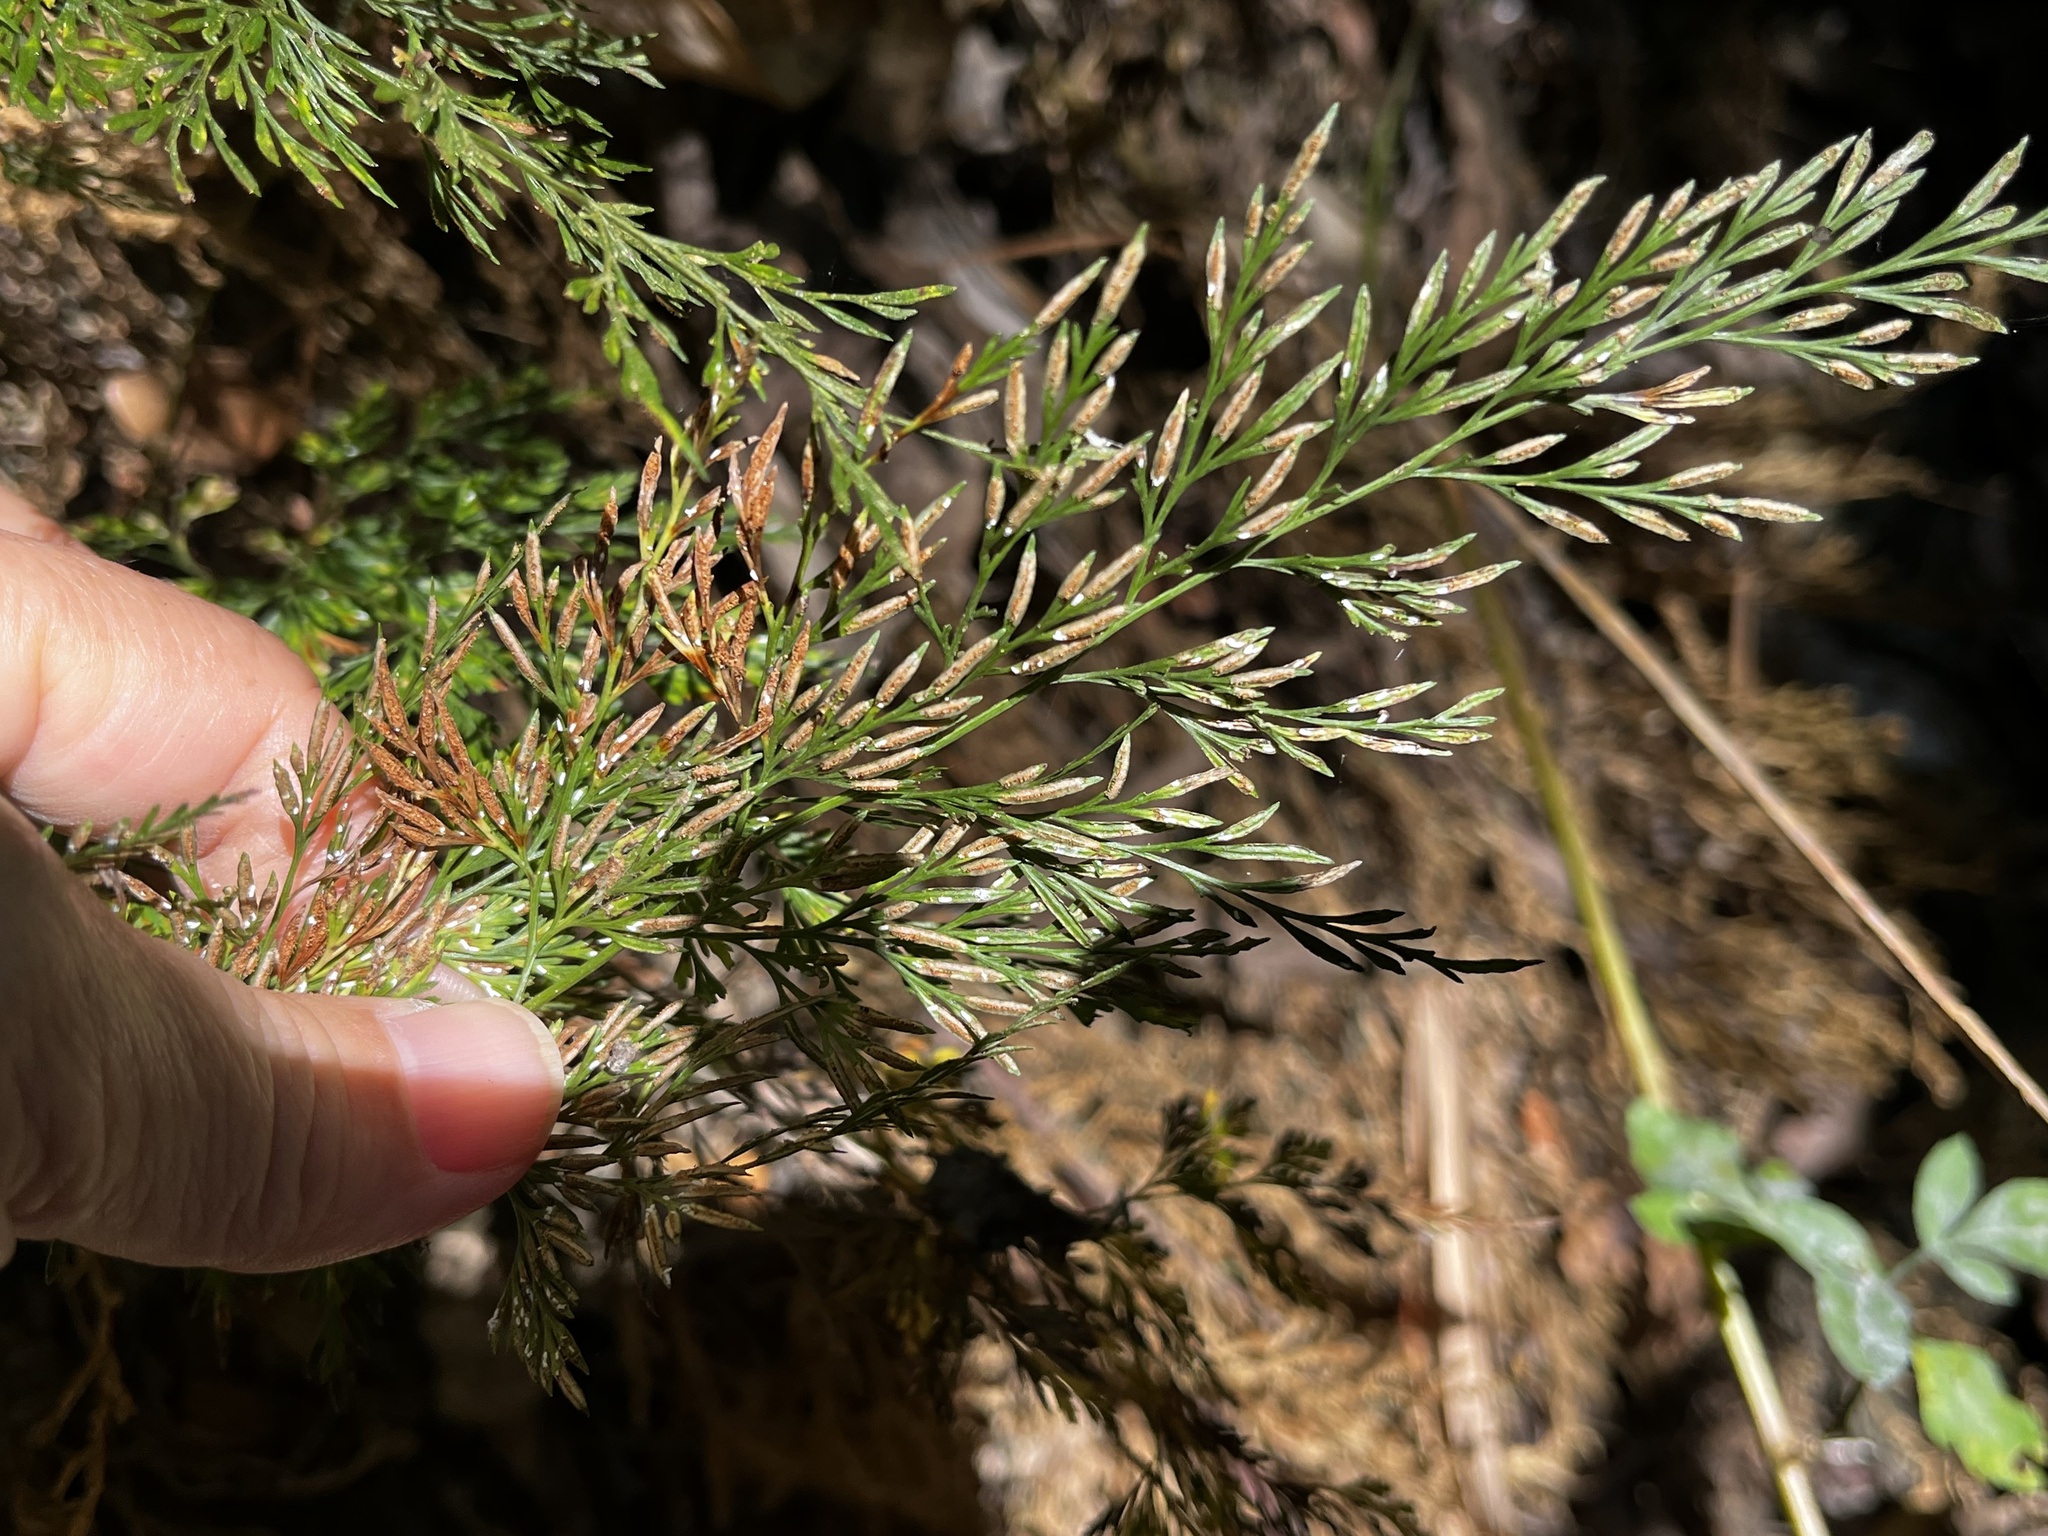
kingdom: Plantae
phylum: Tracheophyta
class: Polypodiopsida
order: Polypodiales
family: Pteridaceae
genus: Onychium
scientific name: Onychium japonicum
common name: Carrot fern
